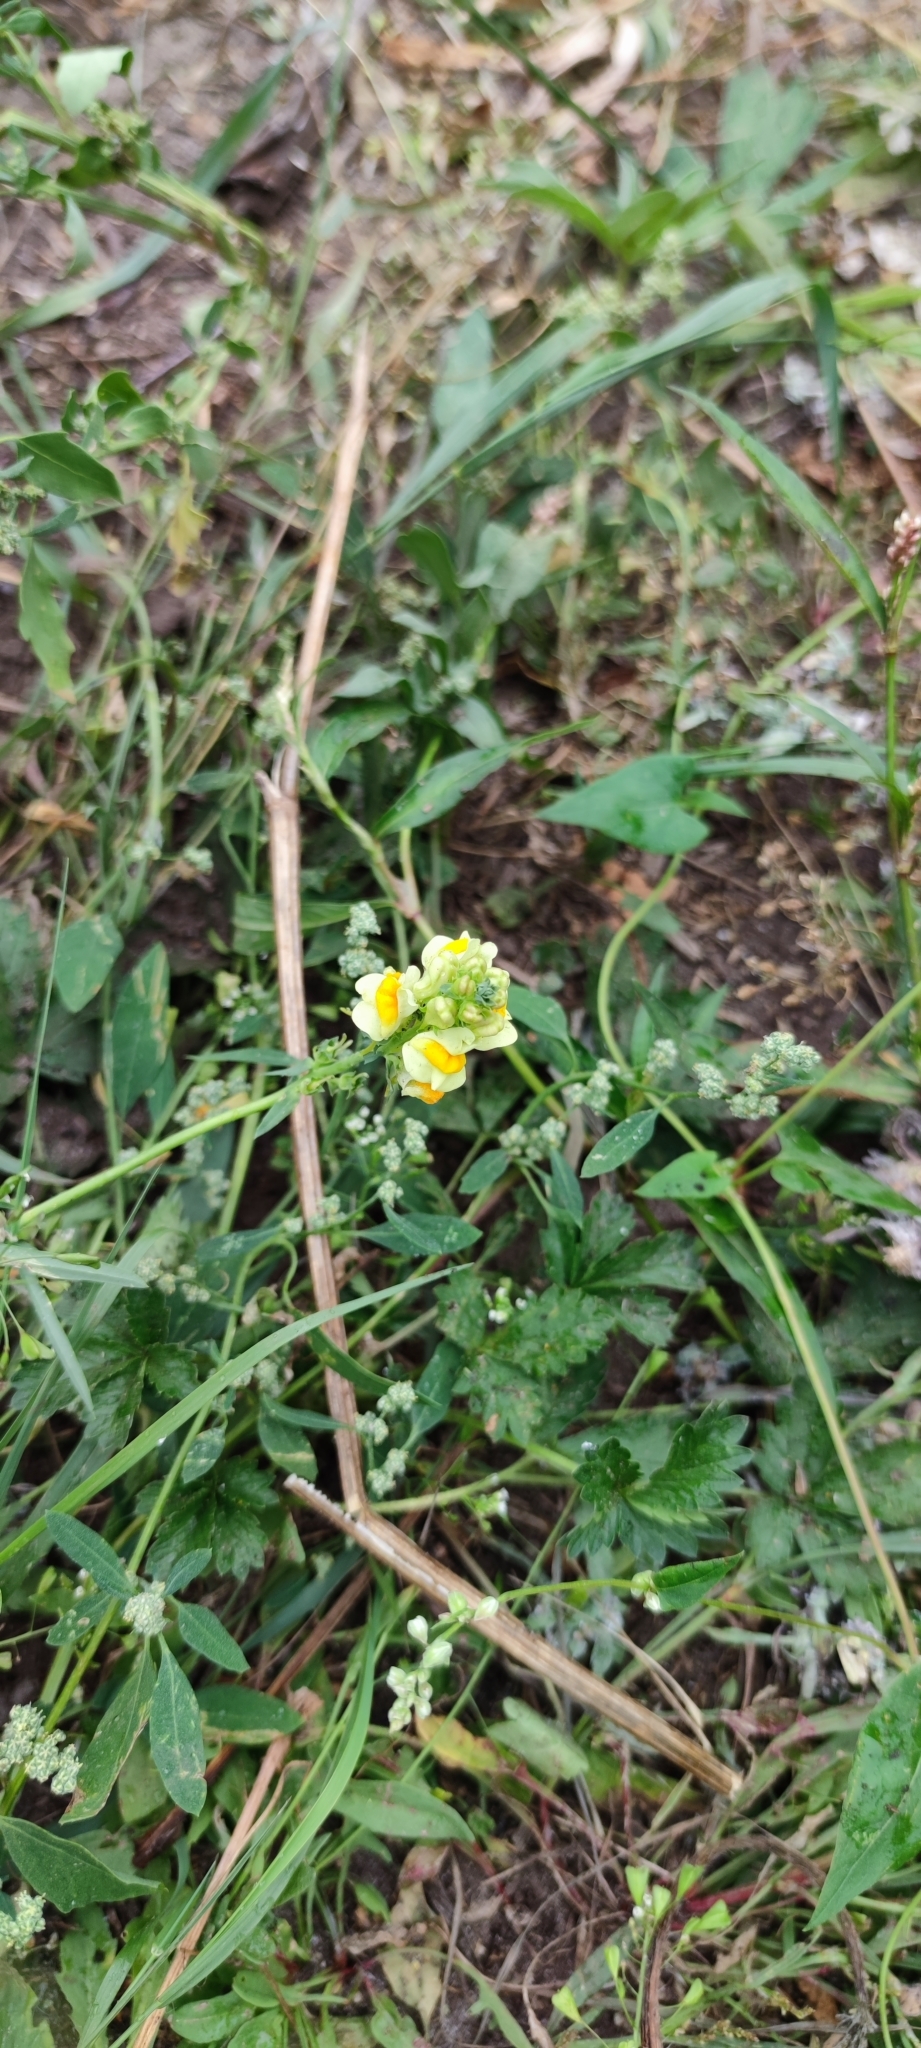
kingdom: Plantae
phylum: Tracheophyta
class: Magnoliopsida
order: Lamiales
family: Plantaginaceae
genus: Linaria
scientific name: Linaria vulgaris
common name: Butter and eggs
